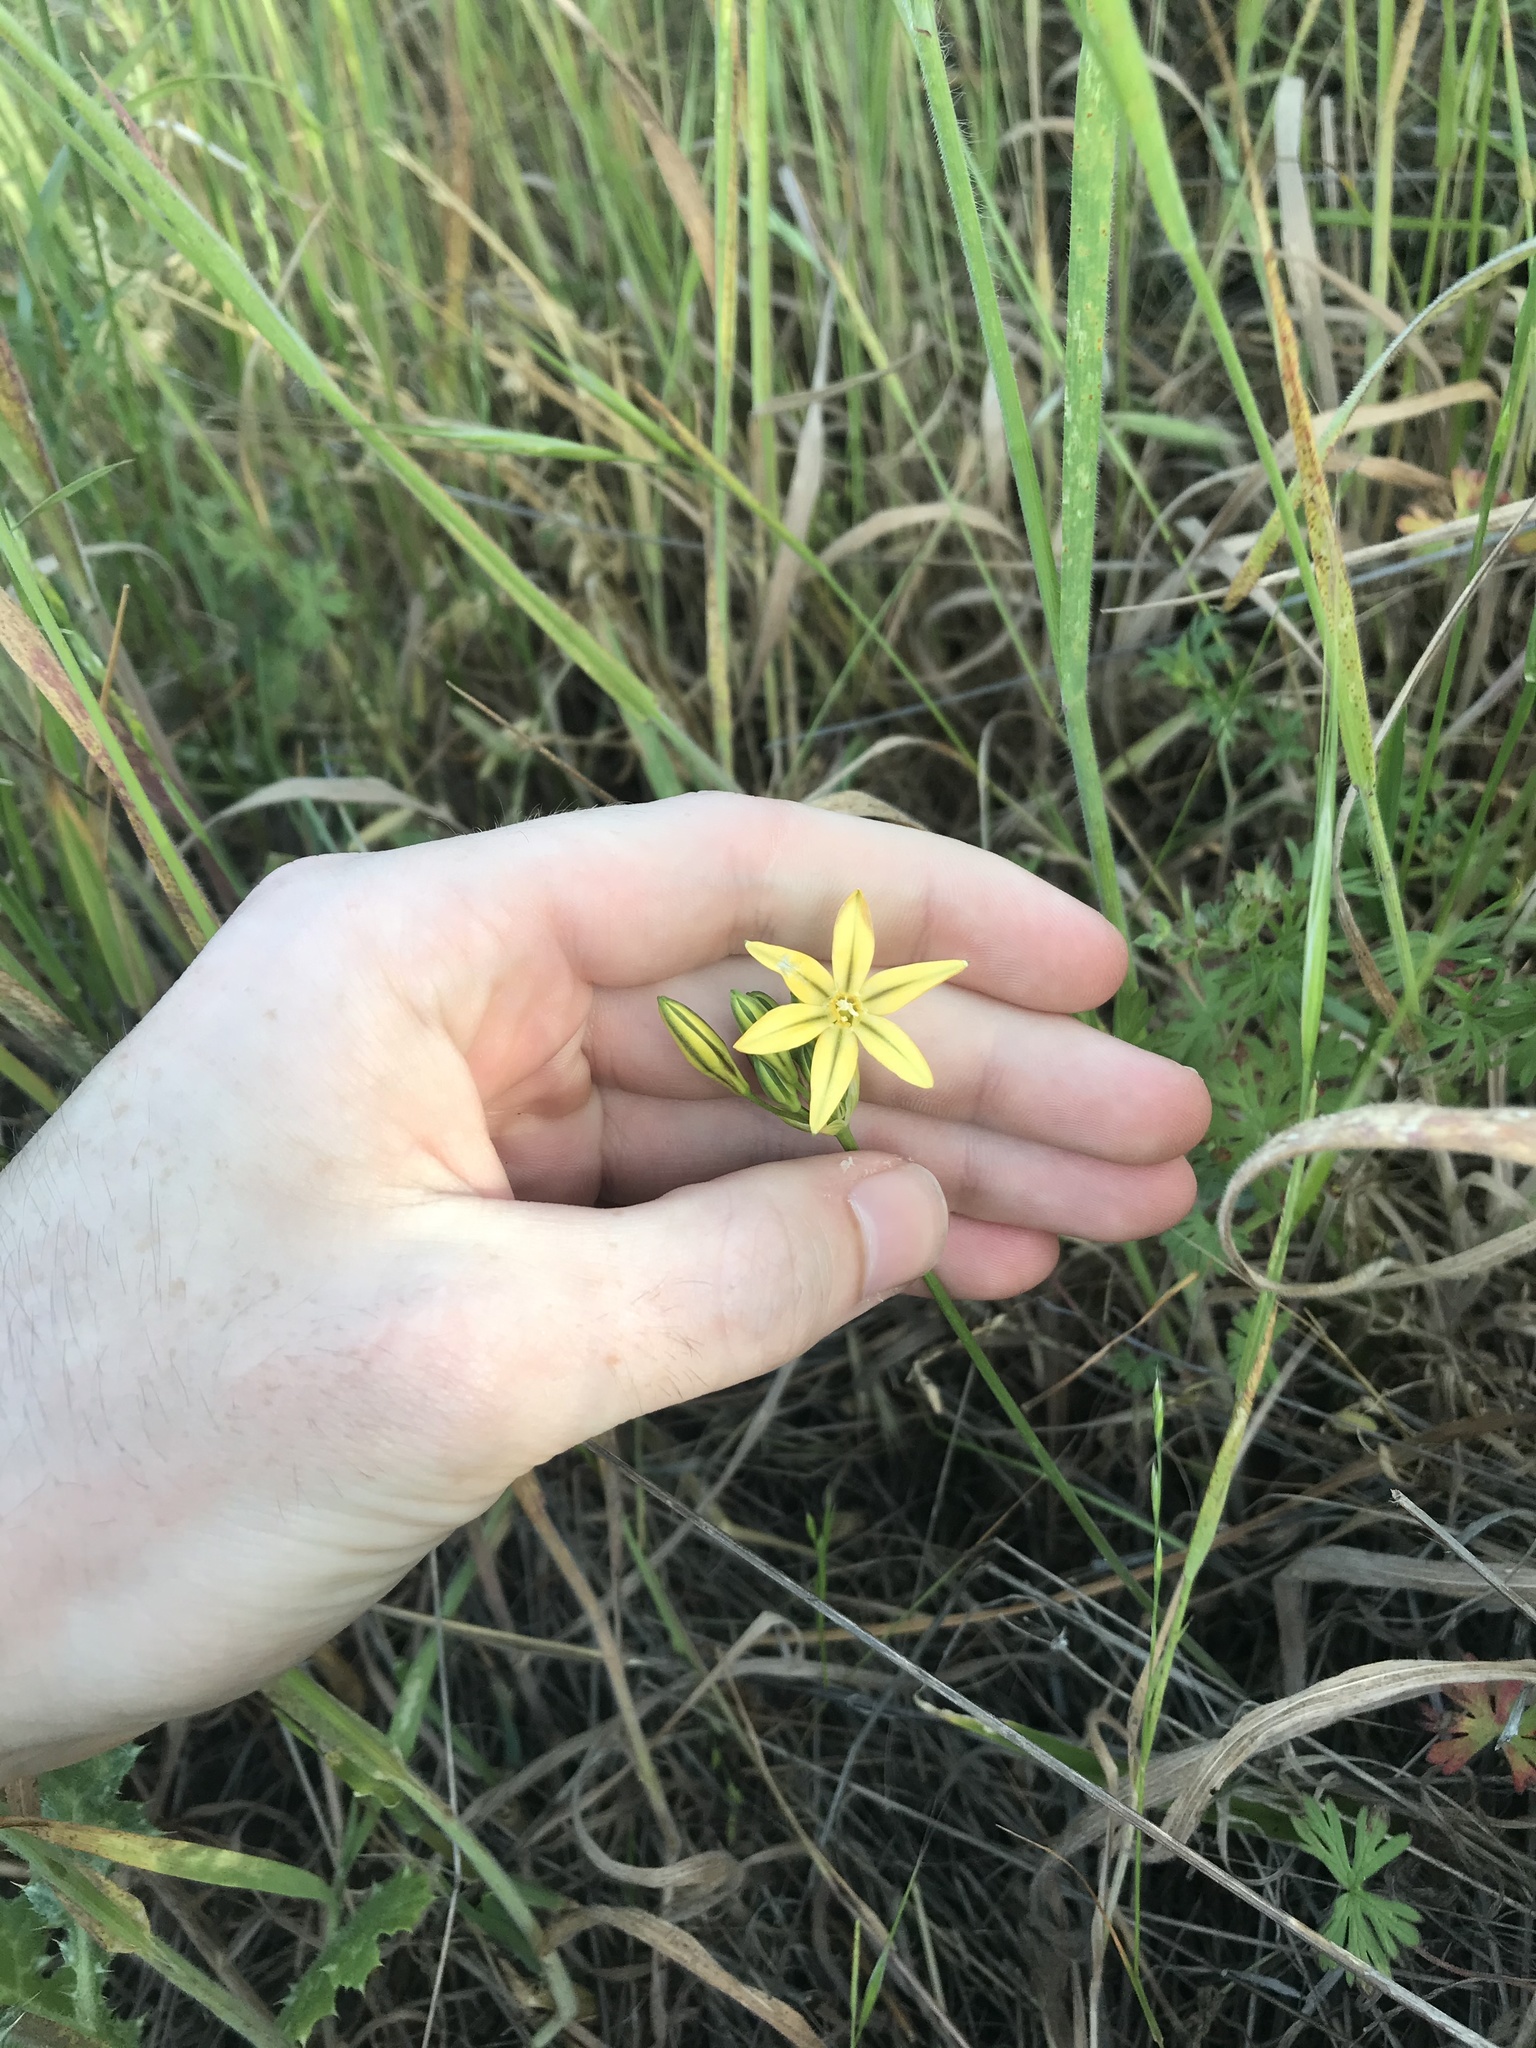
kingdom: Plantae
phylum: Tracheophyta
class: Liliopsida
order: Asparagales
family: Asparagaceae
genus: Triteleia
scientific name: Triteleia ixioides
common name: Yellow-brodiaea
